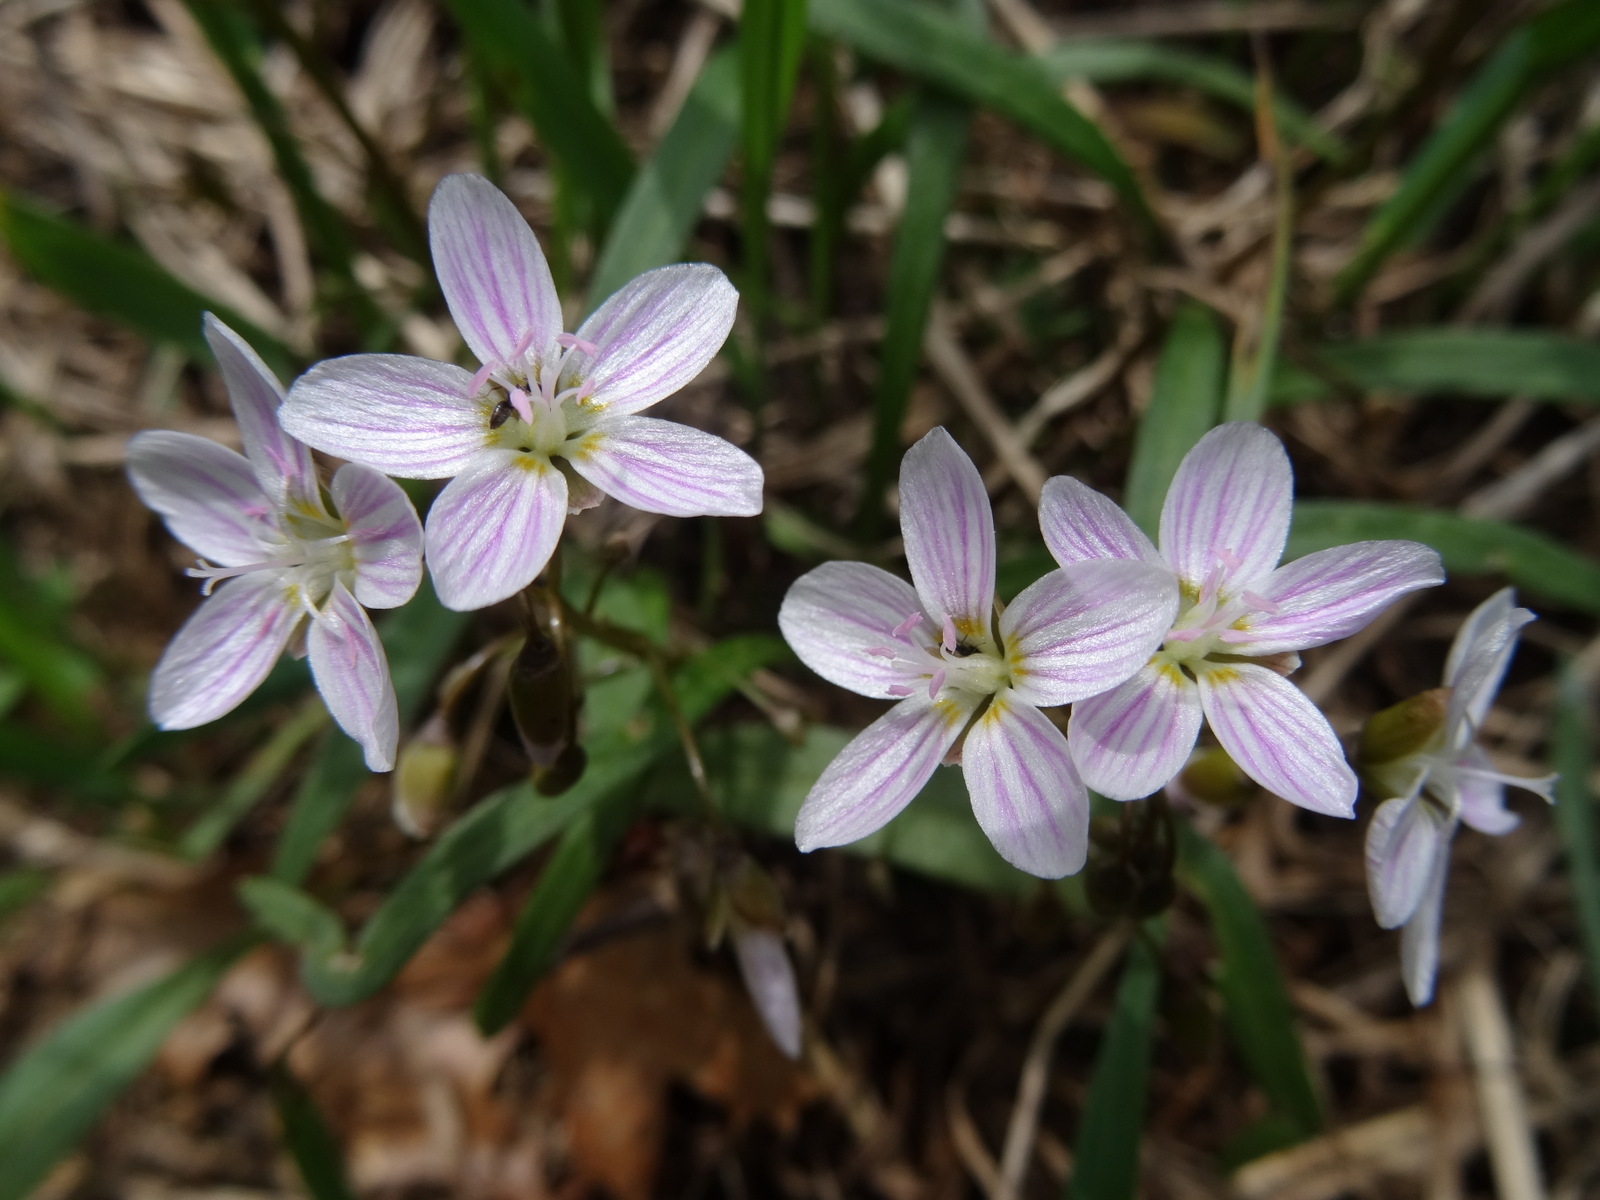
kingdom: Plantae
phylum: Tracheophyta
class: Magnoliopsida
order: Caryophyllales
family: Montiaceae
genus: Claytonia
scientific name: Claytonia virginica
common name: Virginia springbeauty
